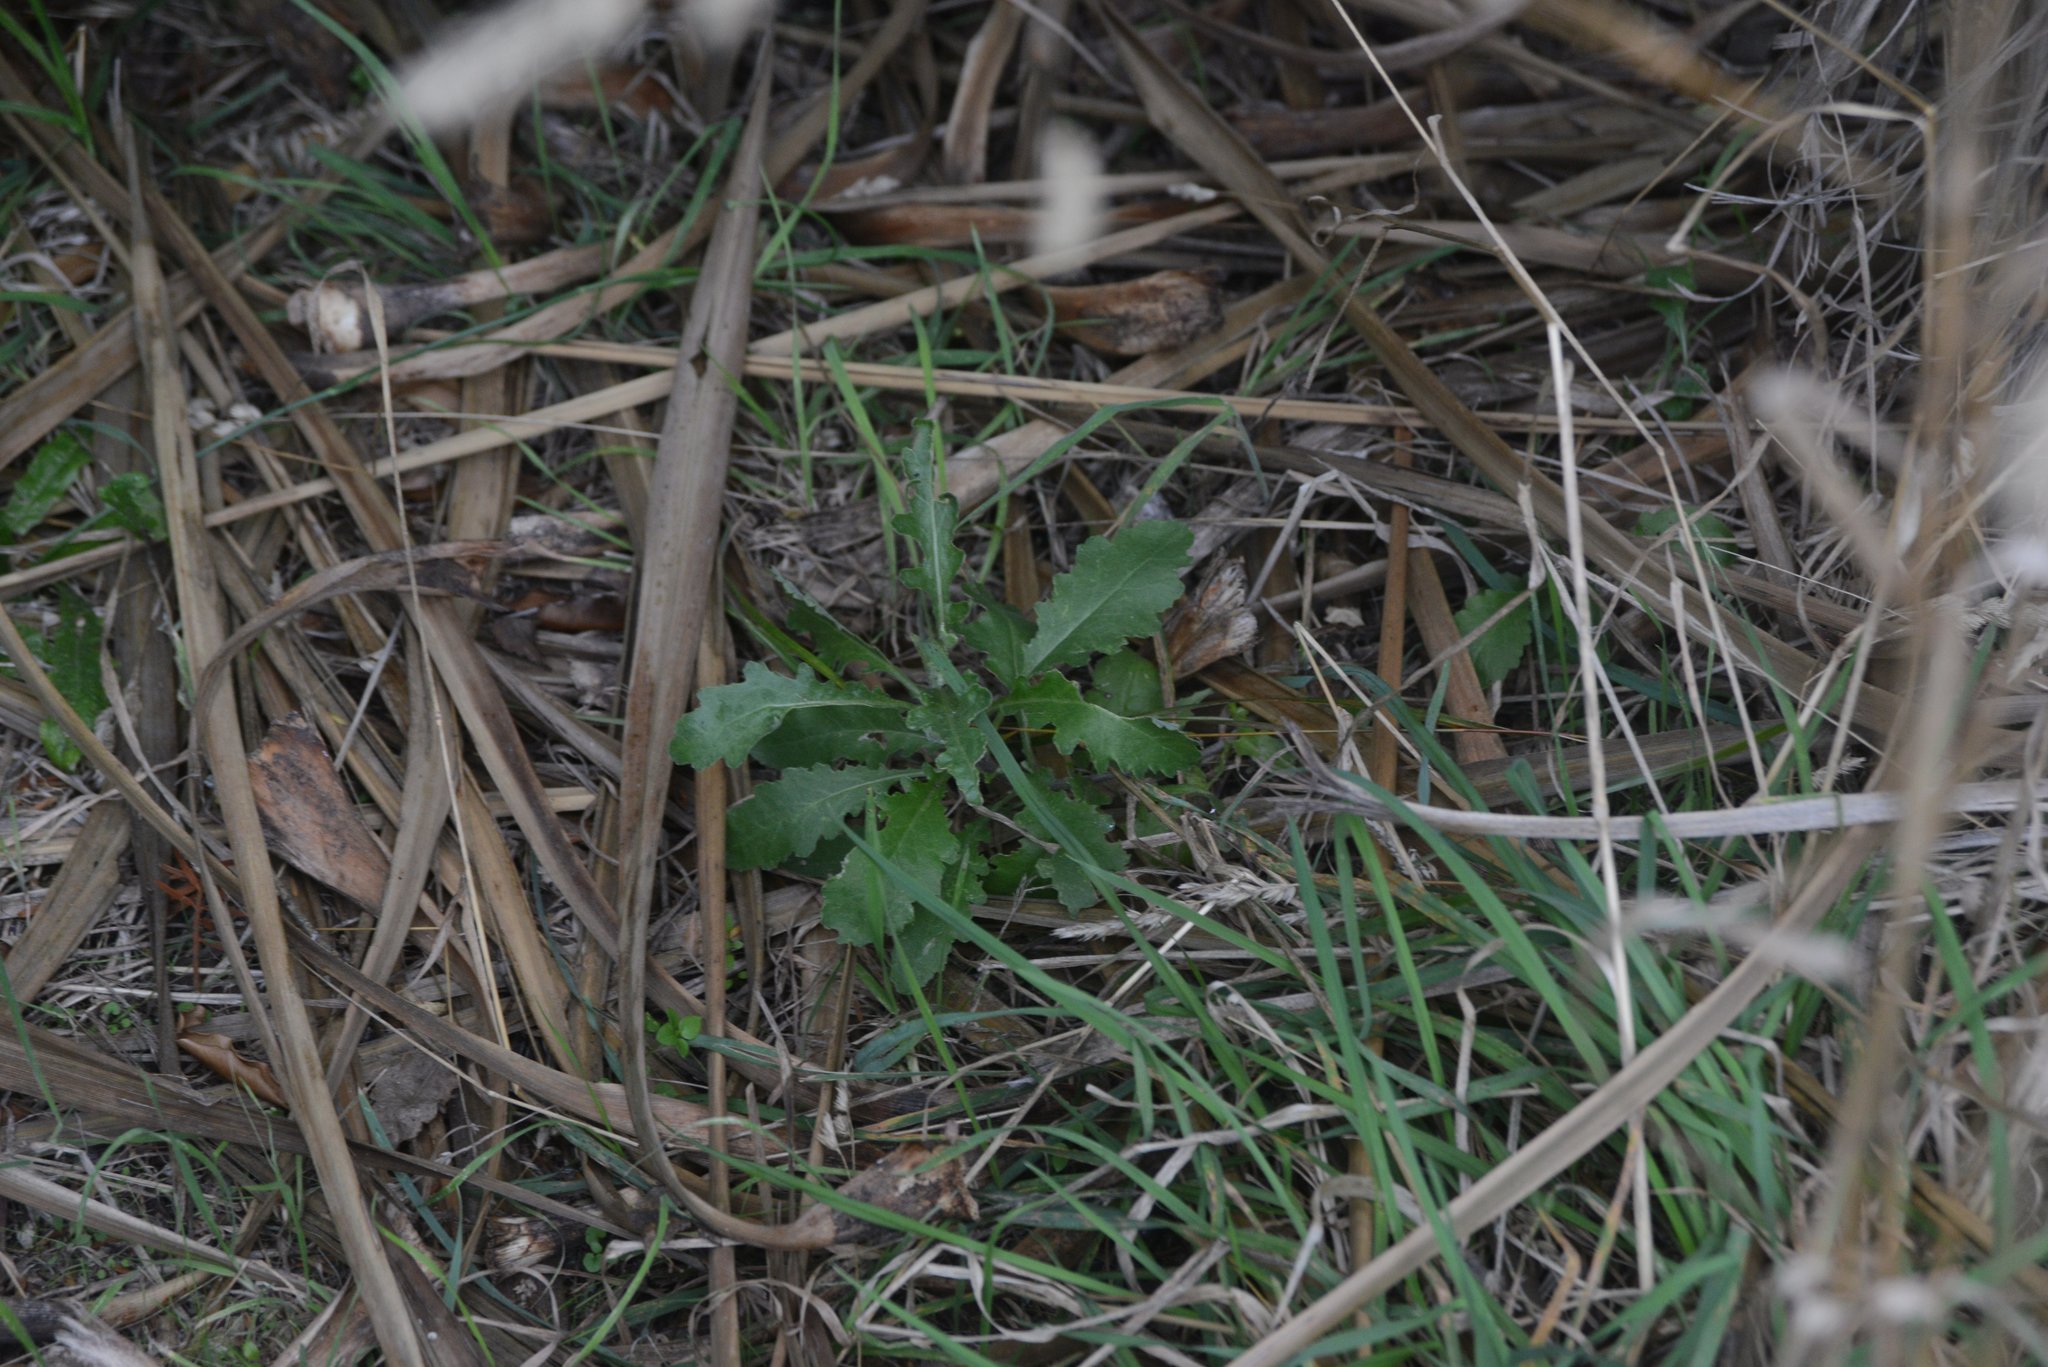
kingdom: Plantae
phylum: Tracheophyta
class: Magnoliopsida
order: Asterales
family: Asteraceae
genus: Senecio
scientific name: Senecio glomeratus
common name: Cutleaf burnweed
